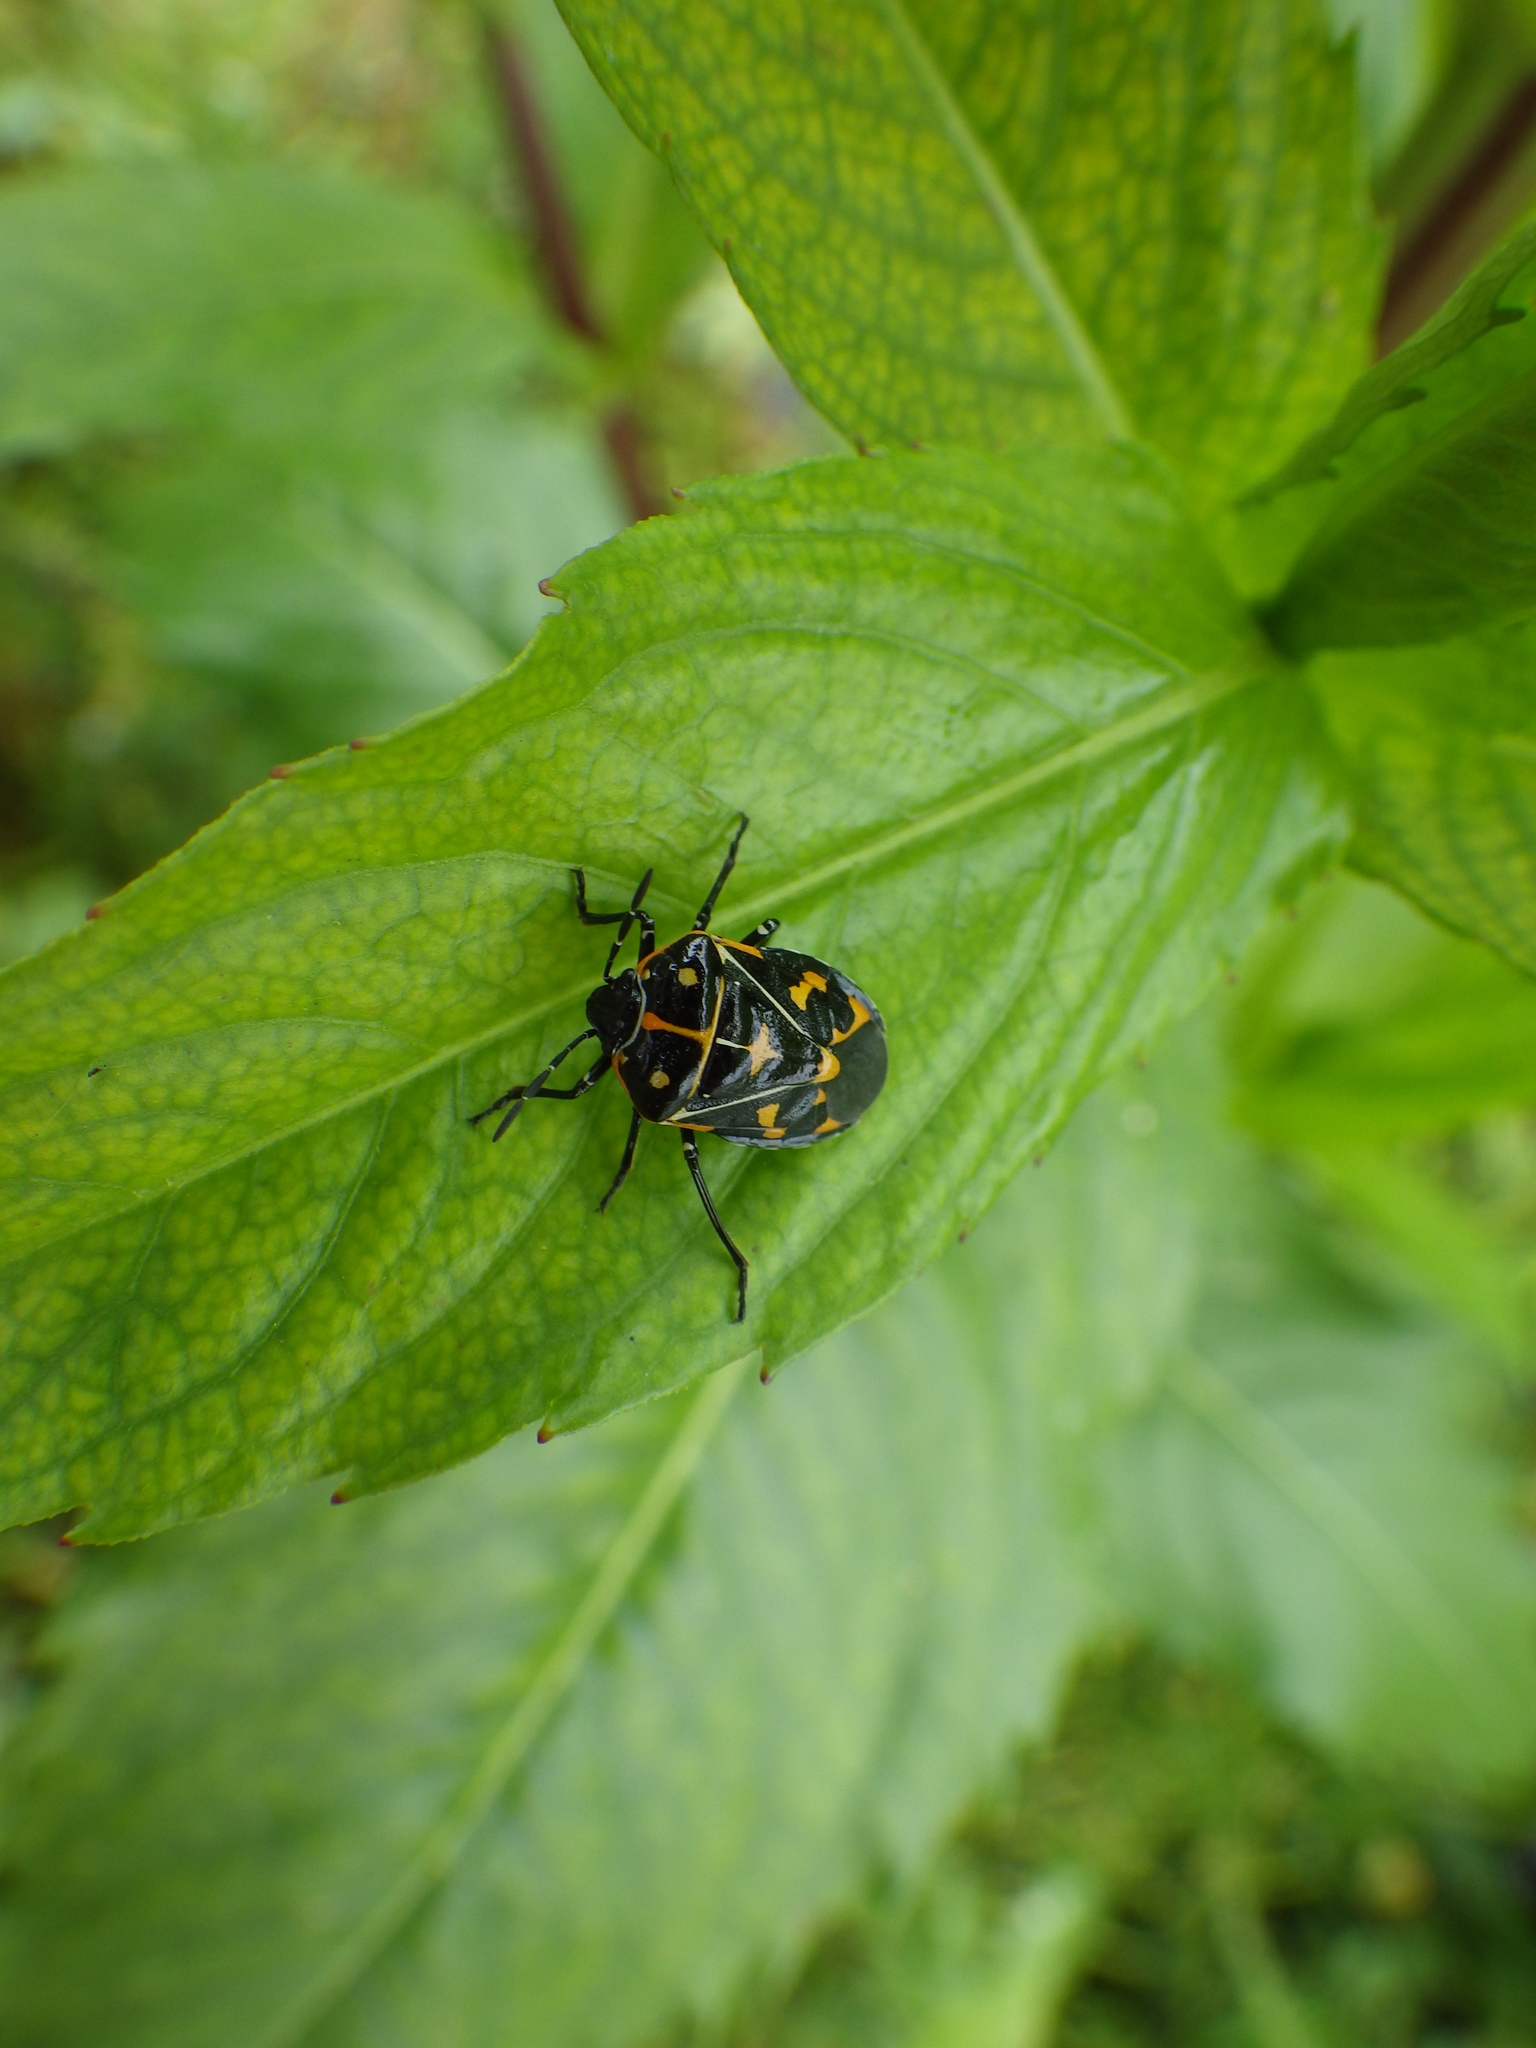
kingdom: Animalia
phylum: Arthropoda
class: Insecta
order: Hemiptera
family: Pentatomidae
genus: Murgantia
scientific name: Murgantia histrionica
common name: Harlequin bug
